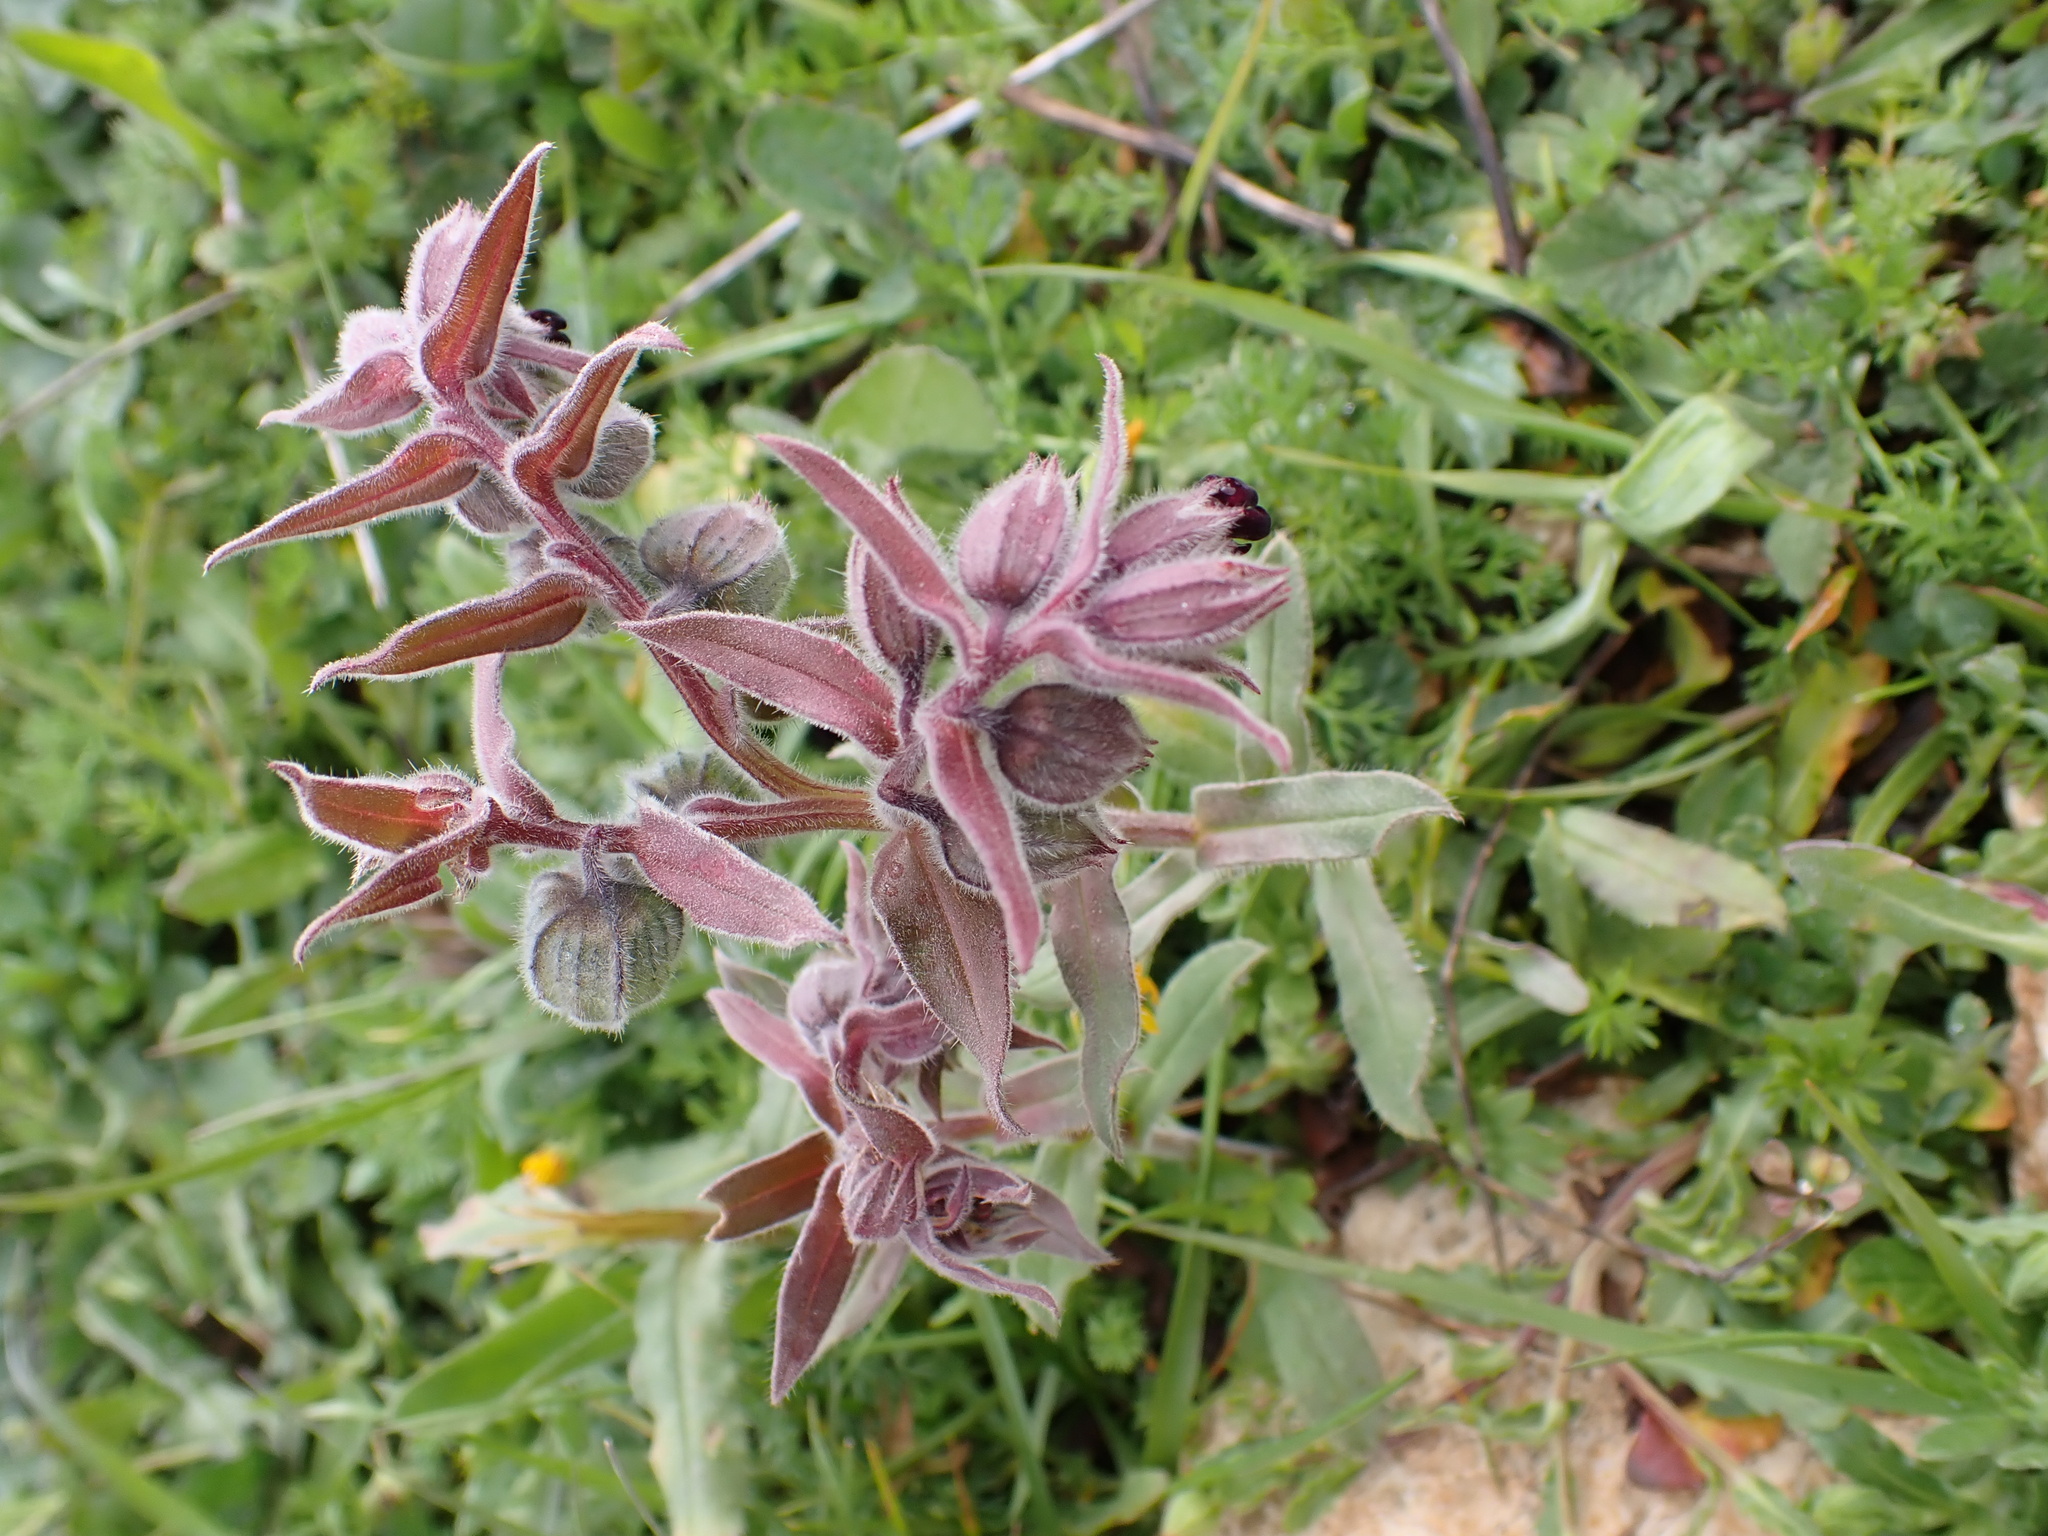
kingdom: Plantae
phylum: Tracheophyta
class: Magnoliopsida
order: Boraginales
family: Boraginaceae
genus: Nonea
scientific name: Nonea vesicaria
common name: Red monkswort
